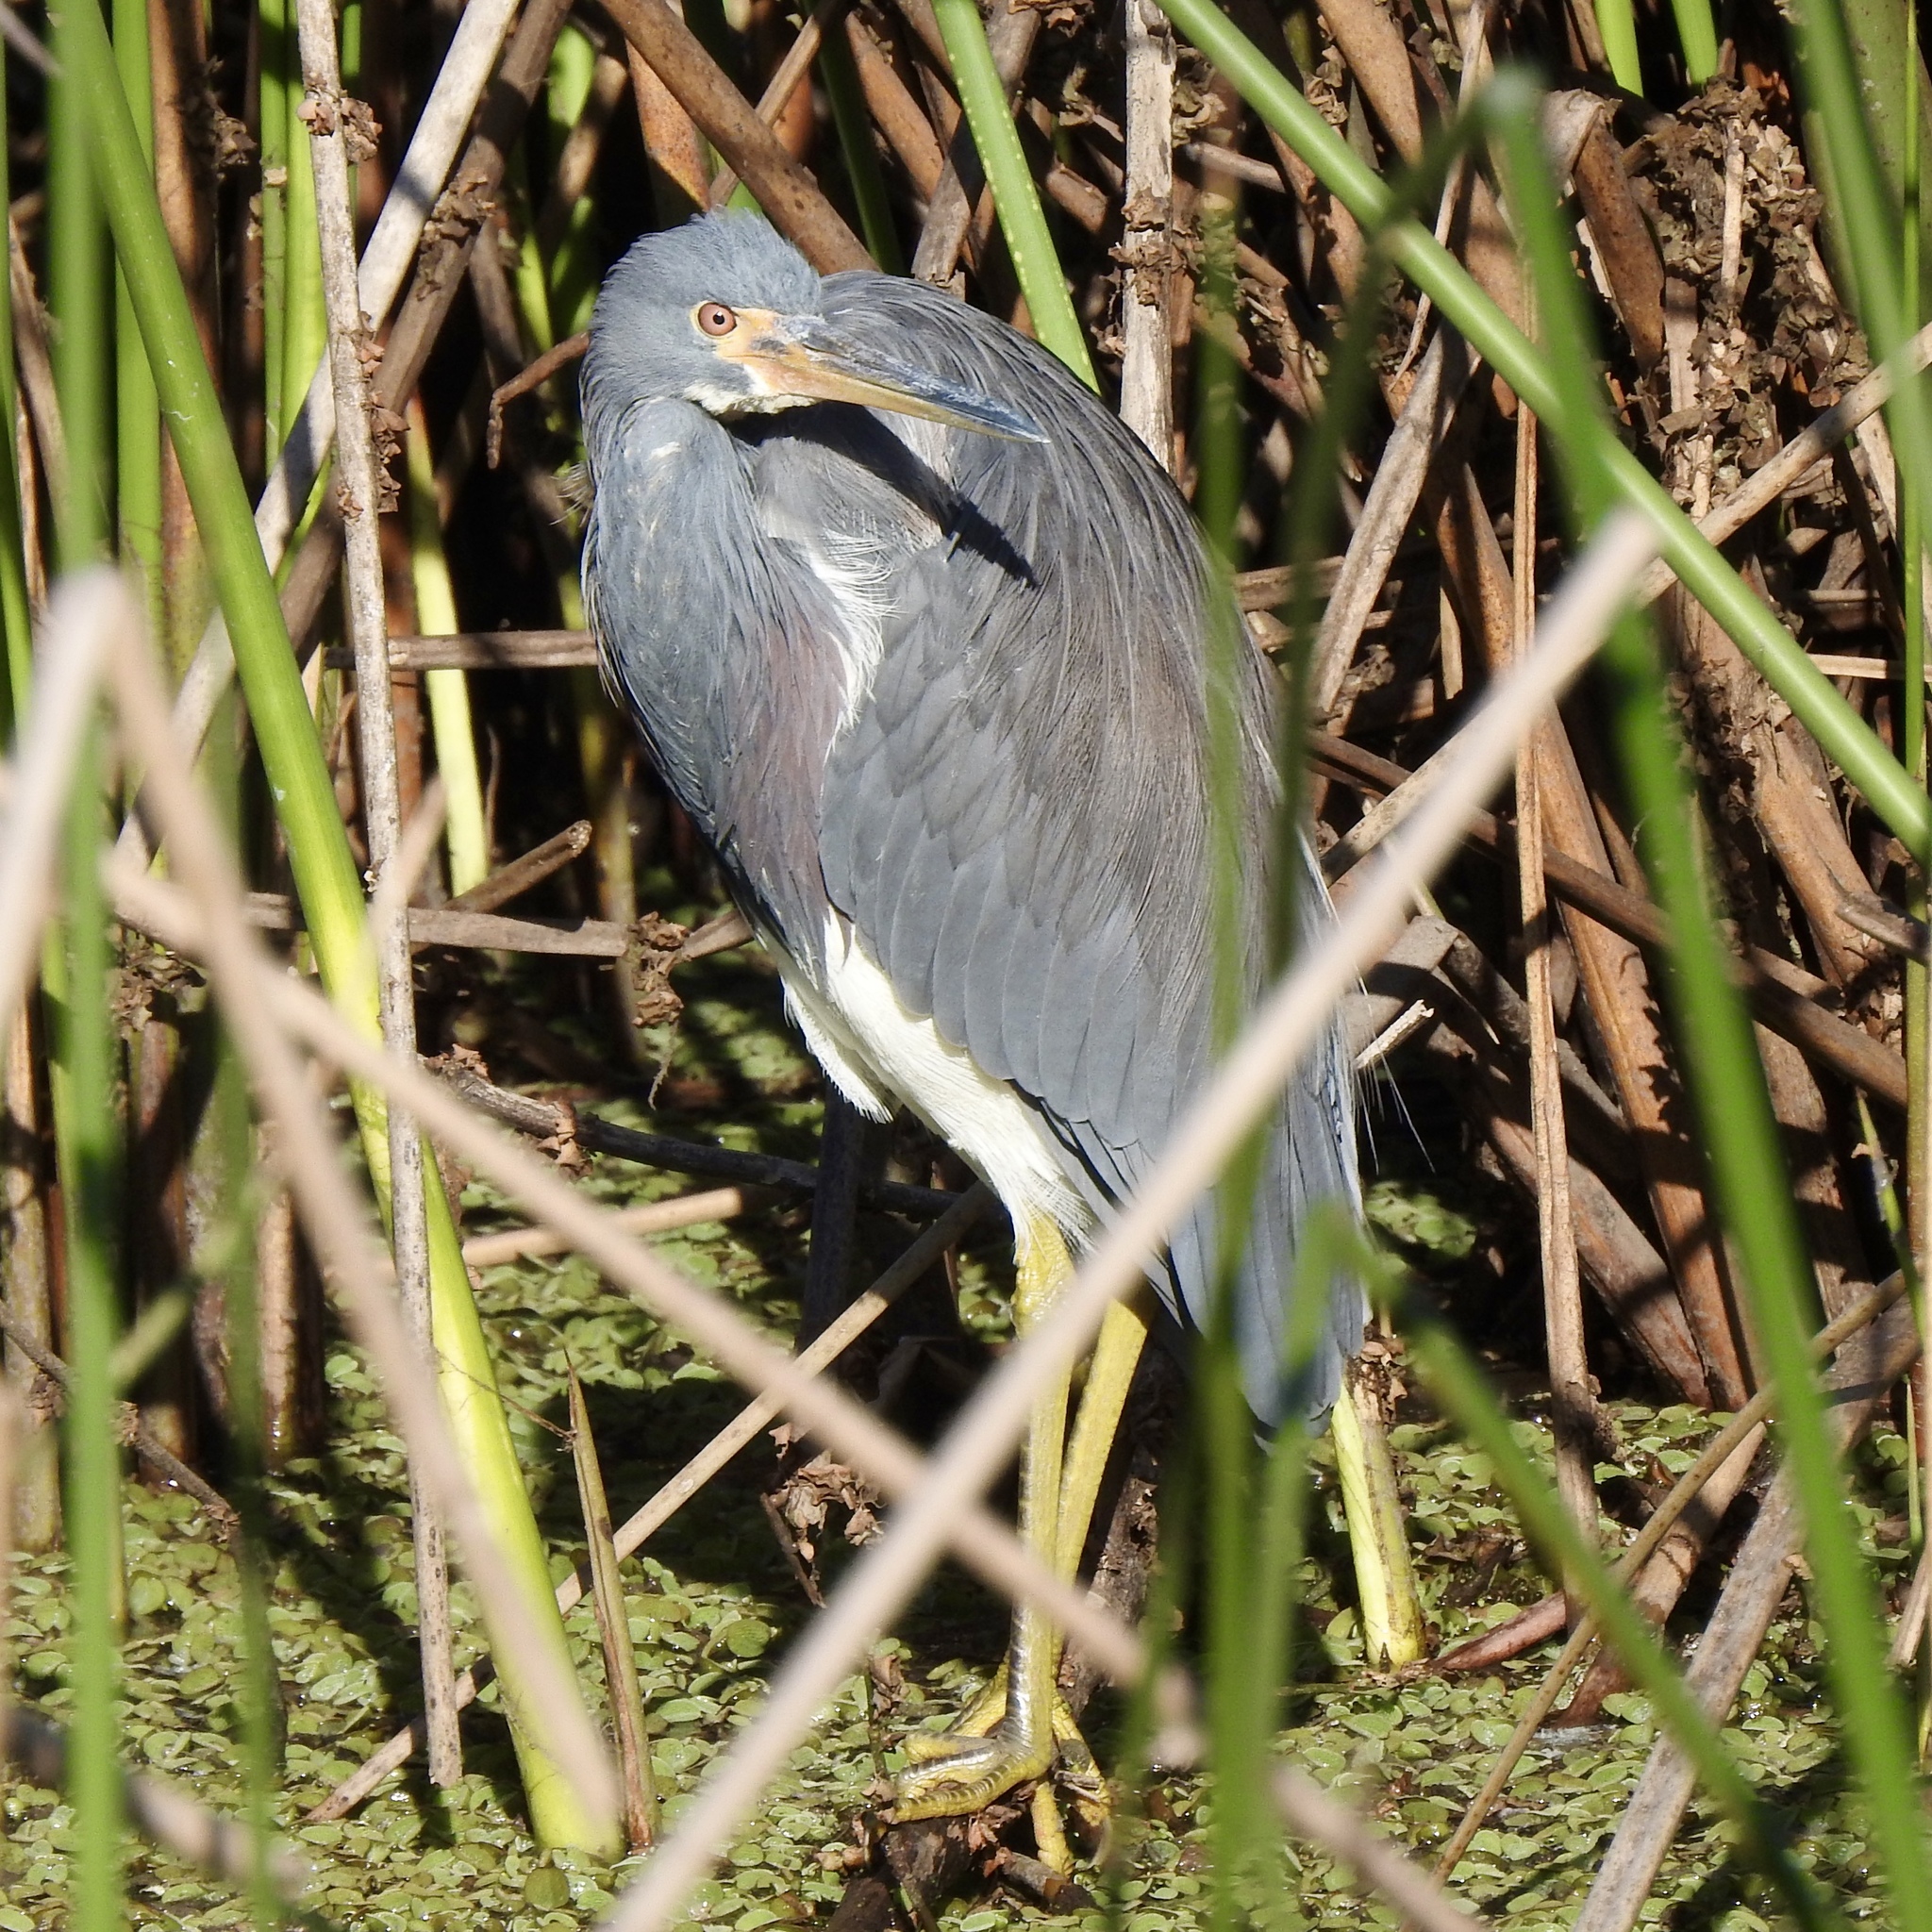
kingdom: Animalia
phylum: Chordata
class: Aves
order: Pelecaniformes
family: Ardeidae
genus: Egretta
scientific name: Egretta tricolor
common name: Tricolored heron
